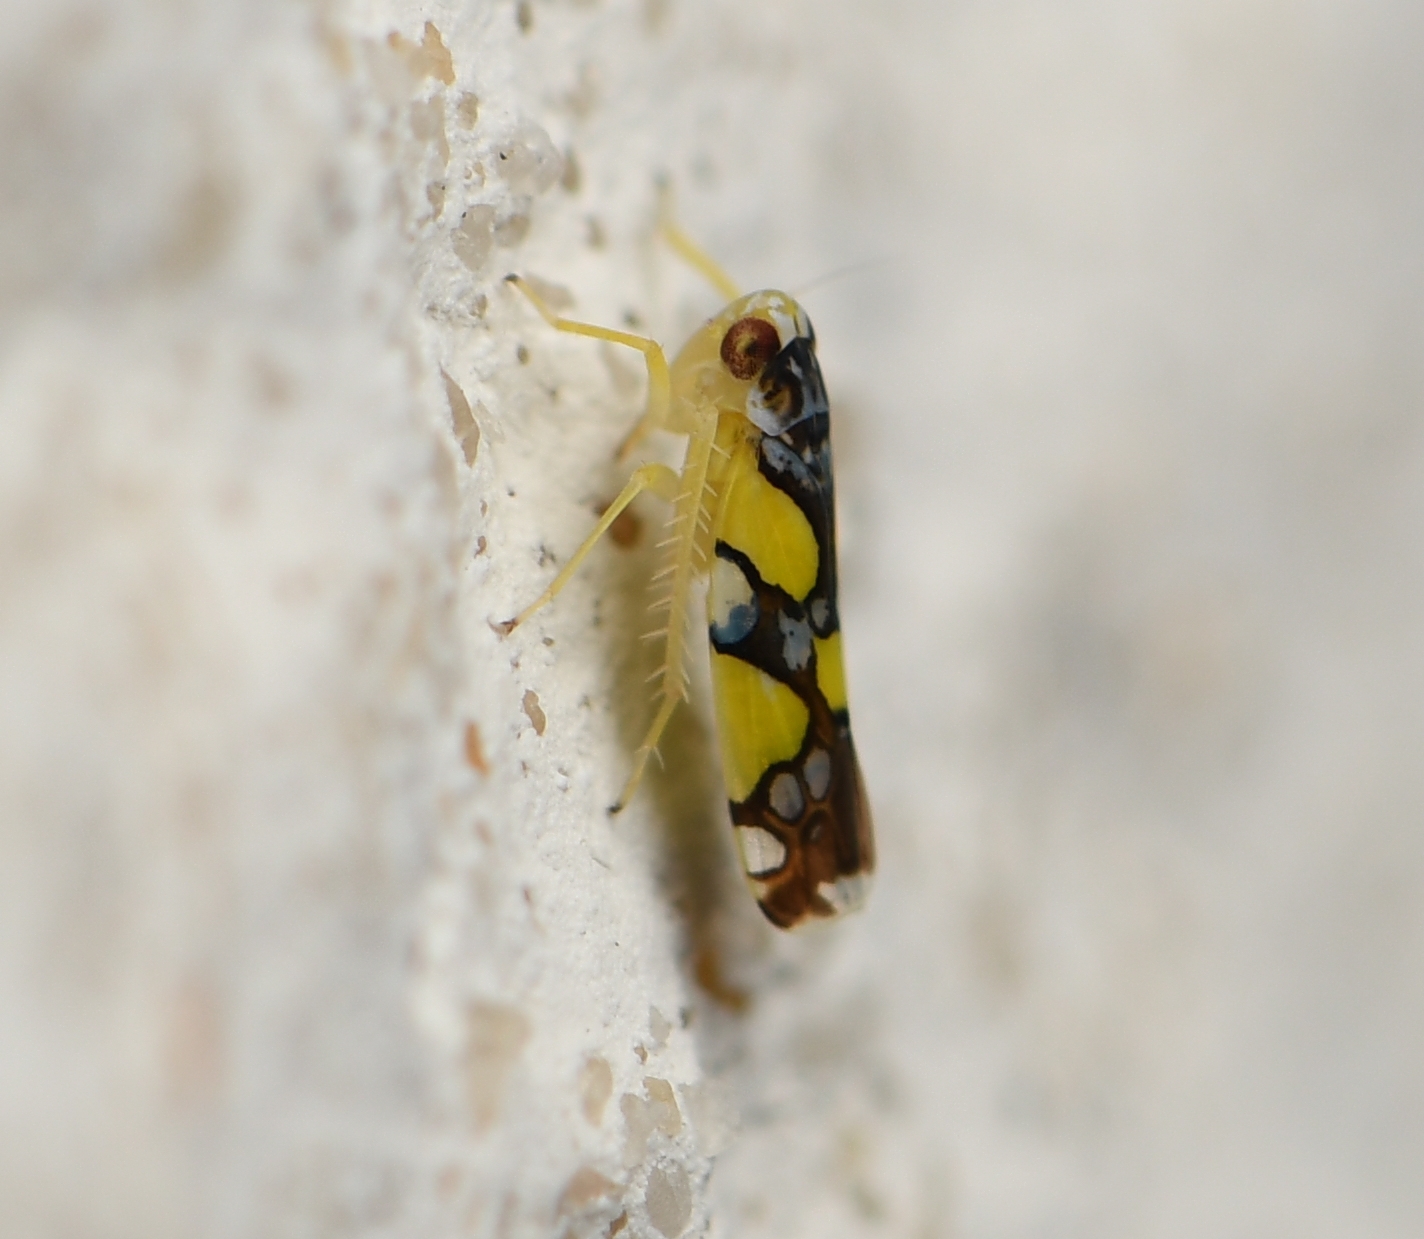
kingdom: Animalia
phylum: Arthropoda
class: Insecta
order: Hemiptera
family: Cicadellidae
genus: Protalebrella
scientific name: Protalebrella brasiliensis
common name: Brasilian leafhopper
